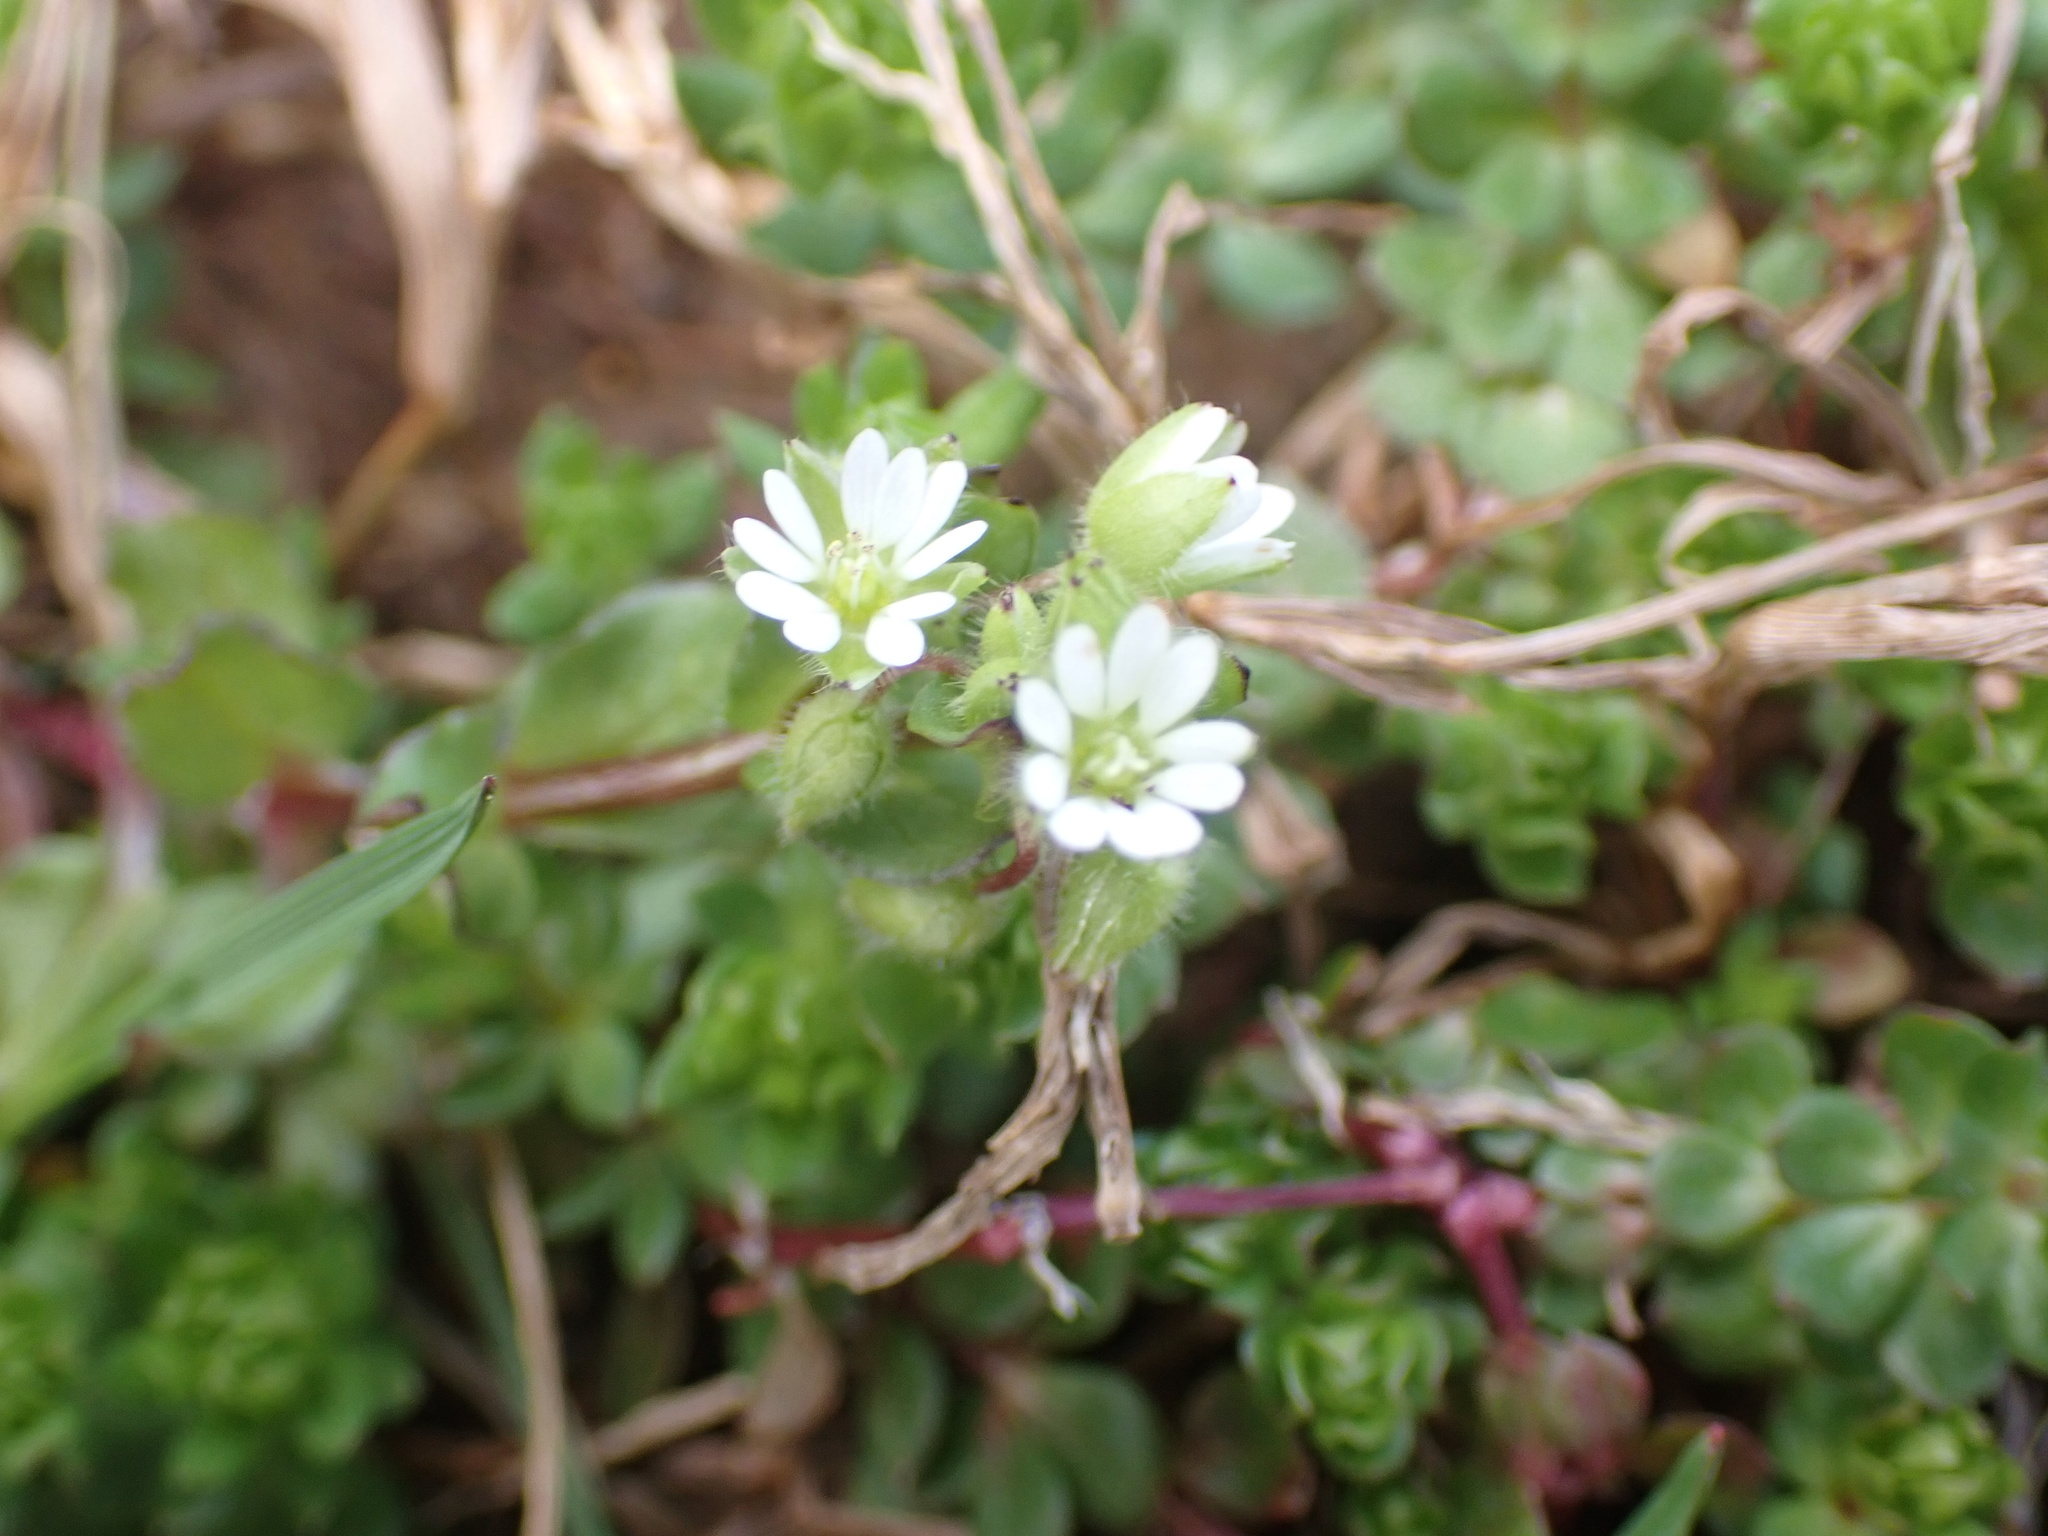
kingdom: Plantae
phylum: Tracheophyta
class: Magnoliopsida
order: Caryophyllales
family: Caryophyllaceae
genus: Stellaria
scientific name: Stellaria media
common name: Common chickweed
